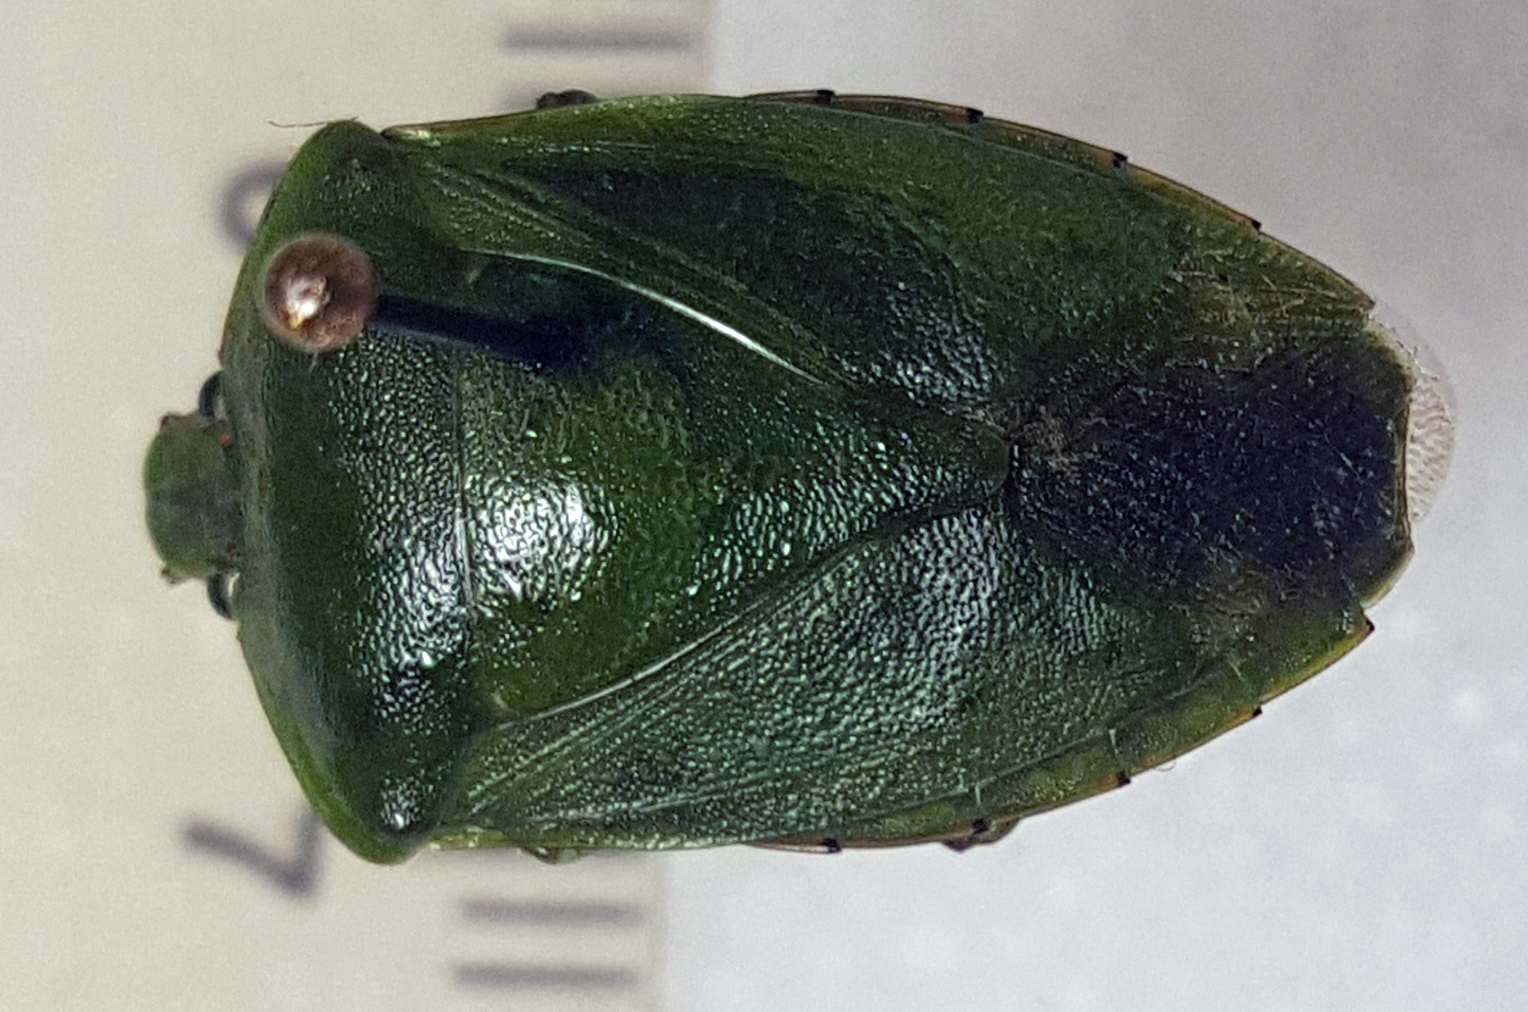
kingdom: Animalia
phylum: Arthropoda
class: Insecta
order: Hemiptera
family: Pentatomidae
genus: Chinavia
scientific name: Chinavia hilaris
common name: Green stink bug
